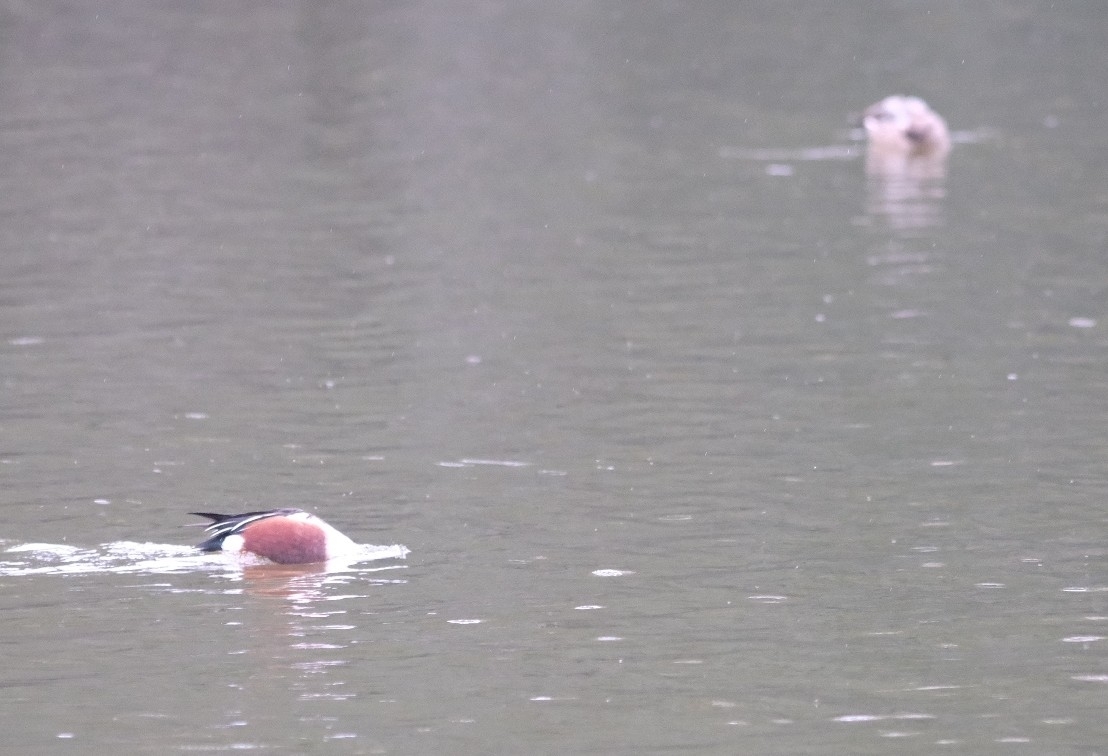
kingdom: Animalia
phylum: Chordata
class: Aves
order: Anseriformes
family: Anatidae
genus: Spatula
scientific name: Spatula clypeata
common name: Northern shoveler
